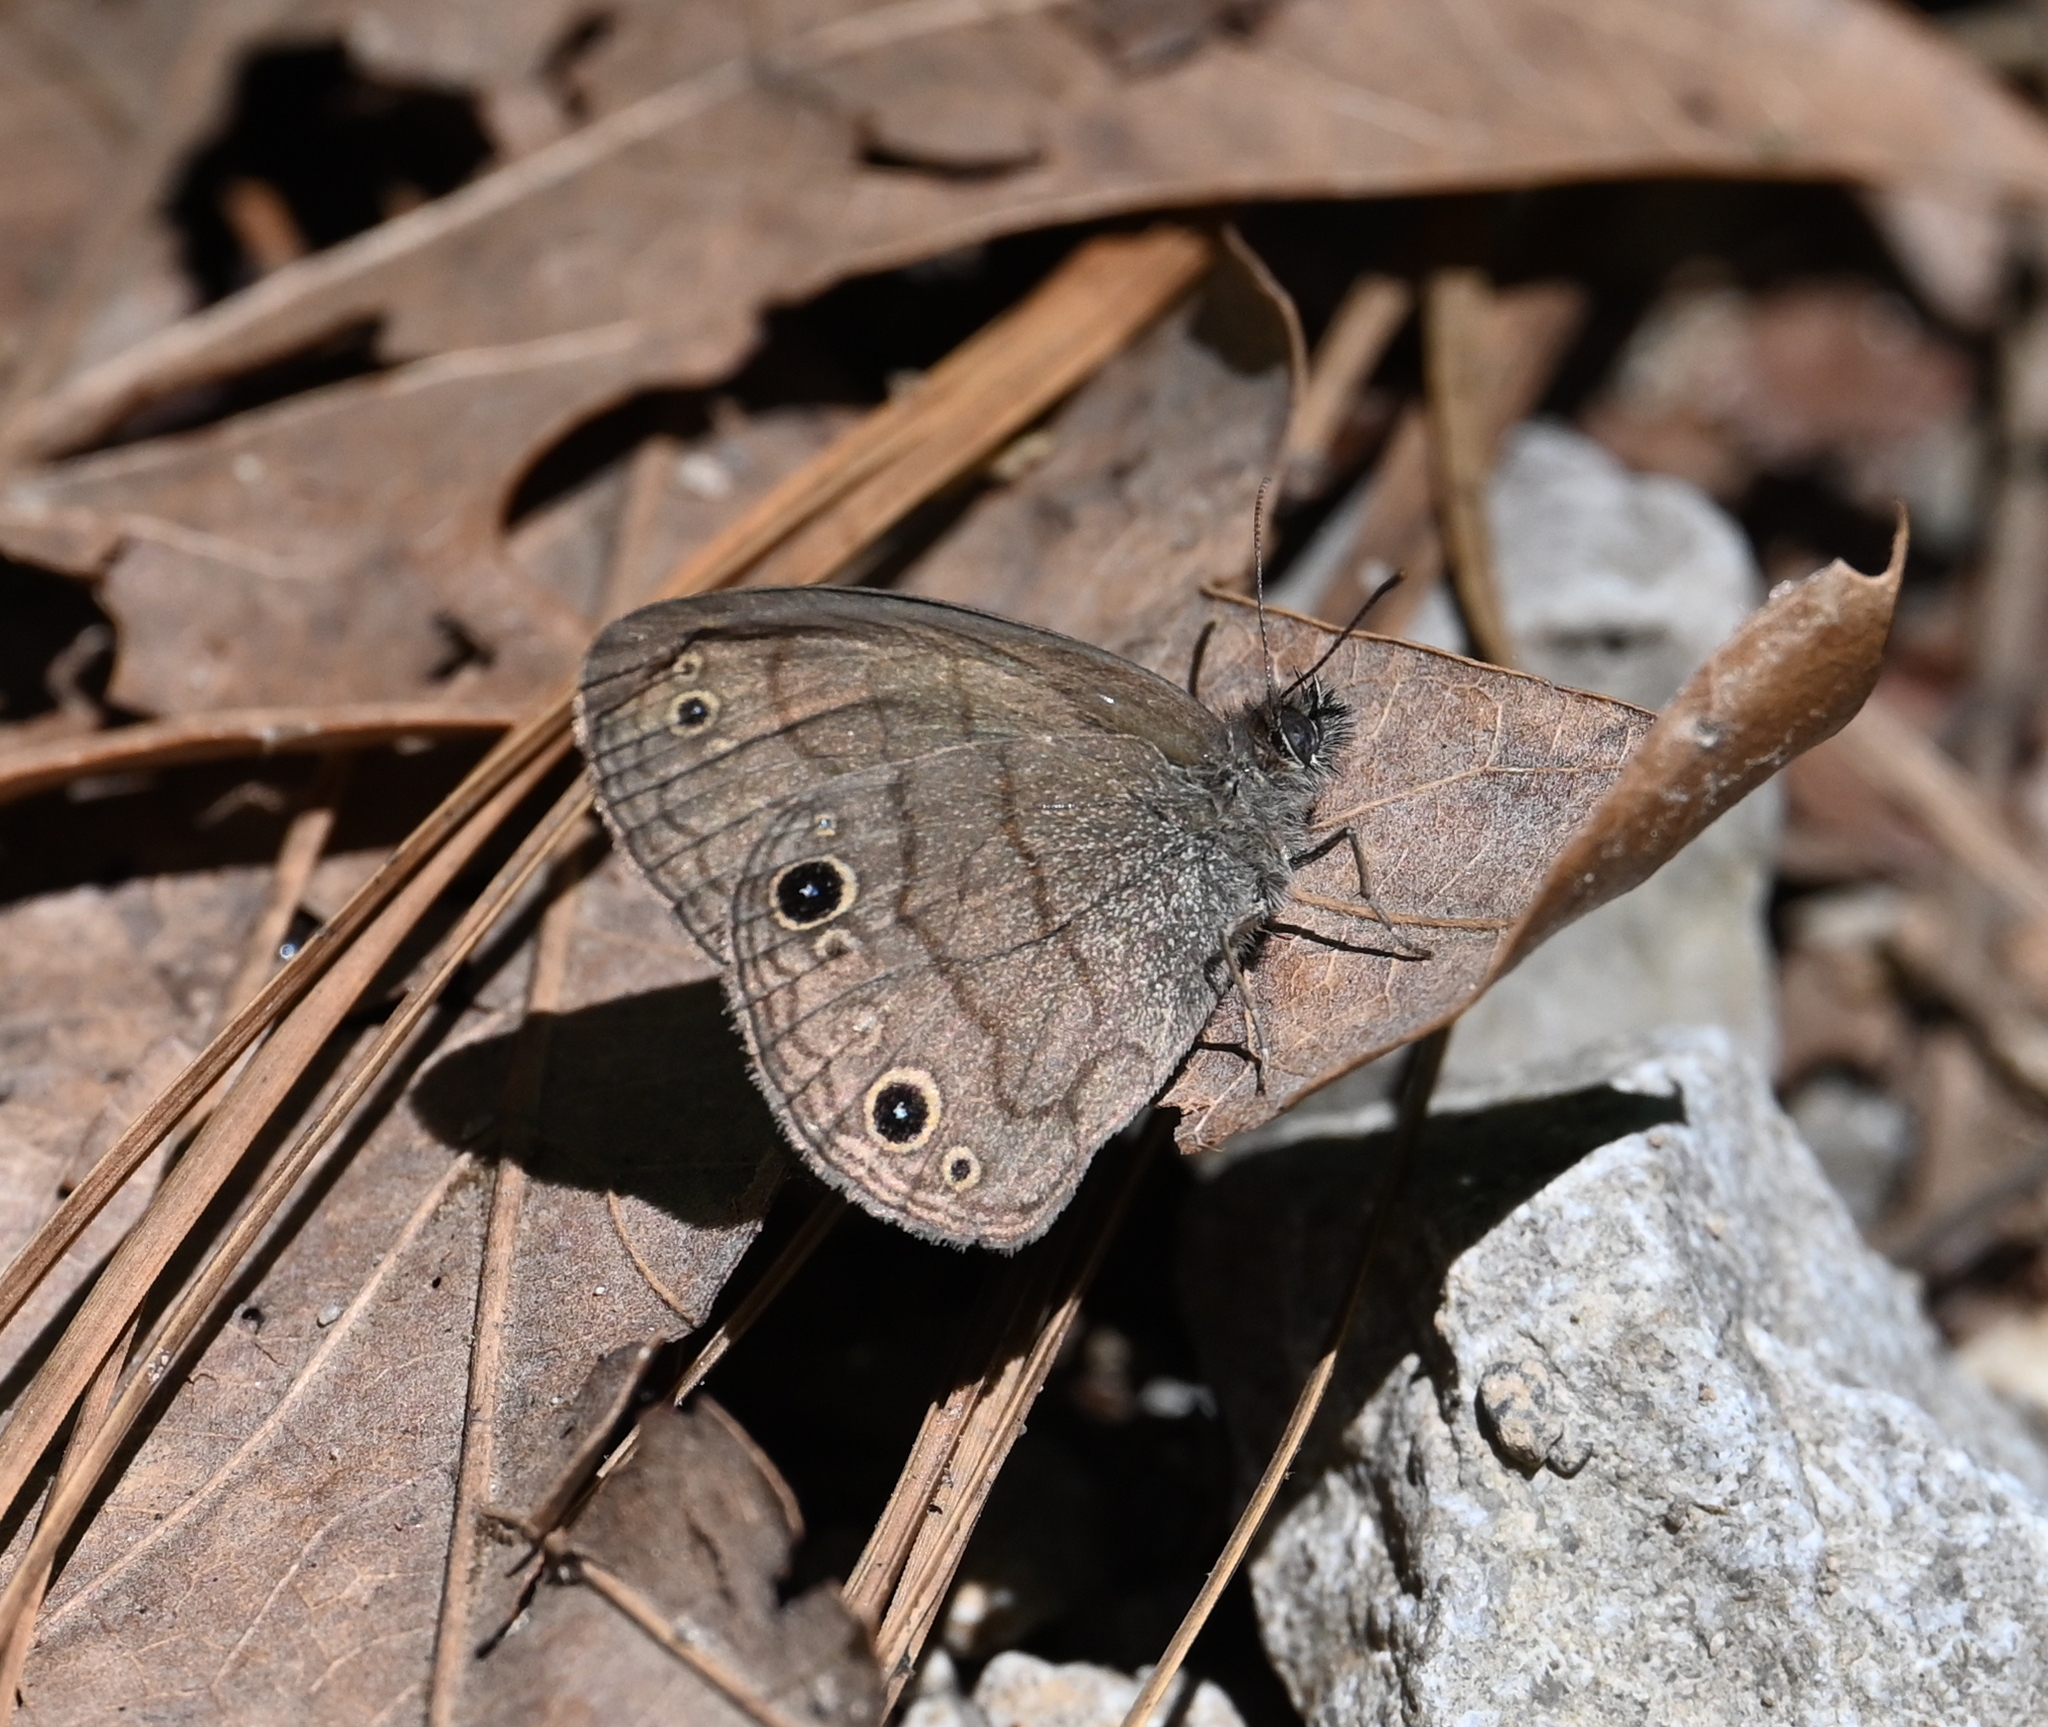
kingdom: Animalia
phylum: Arthropoda
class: Insecta
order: Lepidoptera
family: Nymphalidae
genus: Hermeuptychia
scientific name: Hermeuptychia hermes
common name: Hermes satyr
